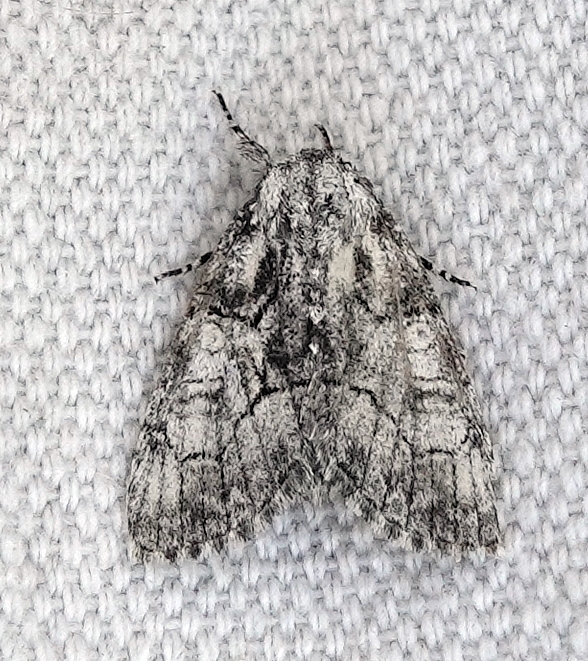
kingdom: Animalia
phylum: Arthropoda
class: Insecta
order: Lepidoptera
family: Noctuidae
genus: Raphia
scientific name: Raphia frater
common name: Brother
